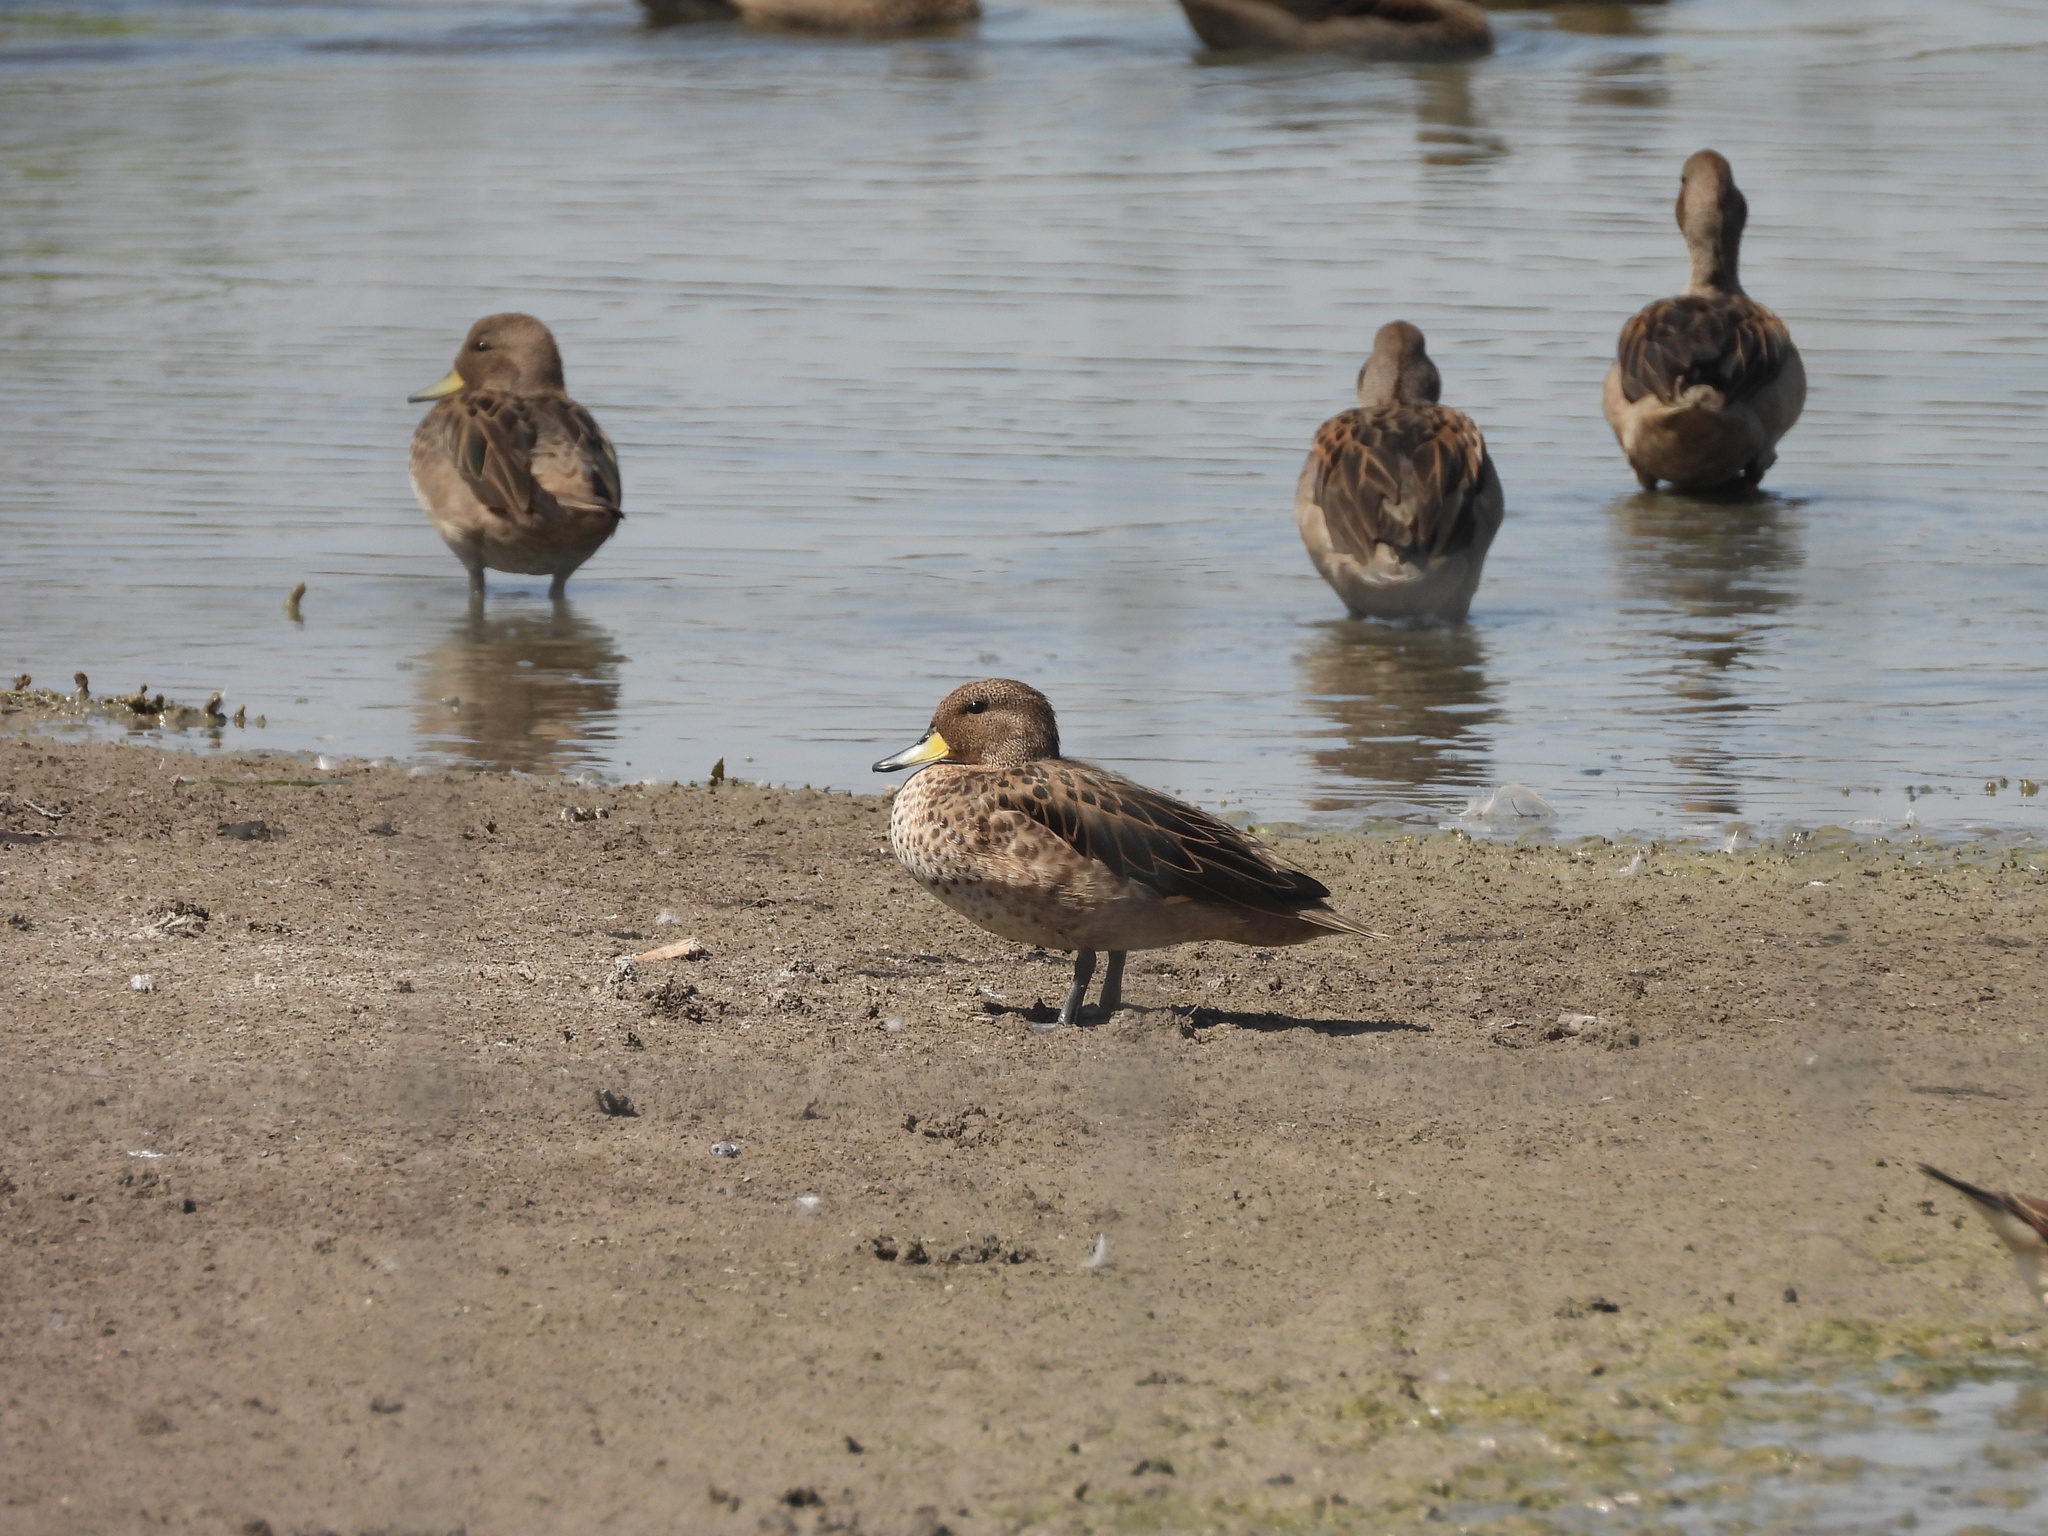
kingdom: Animalia
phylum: Chordata
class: Aves
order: Anseriformes
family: Anatidae
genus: Anas
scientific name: Anas flavirostris
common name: Yellow-billed teal
